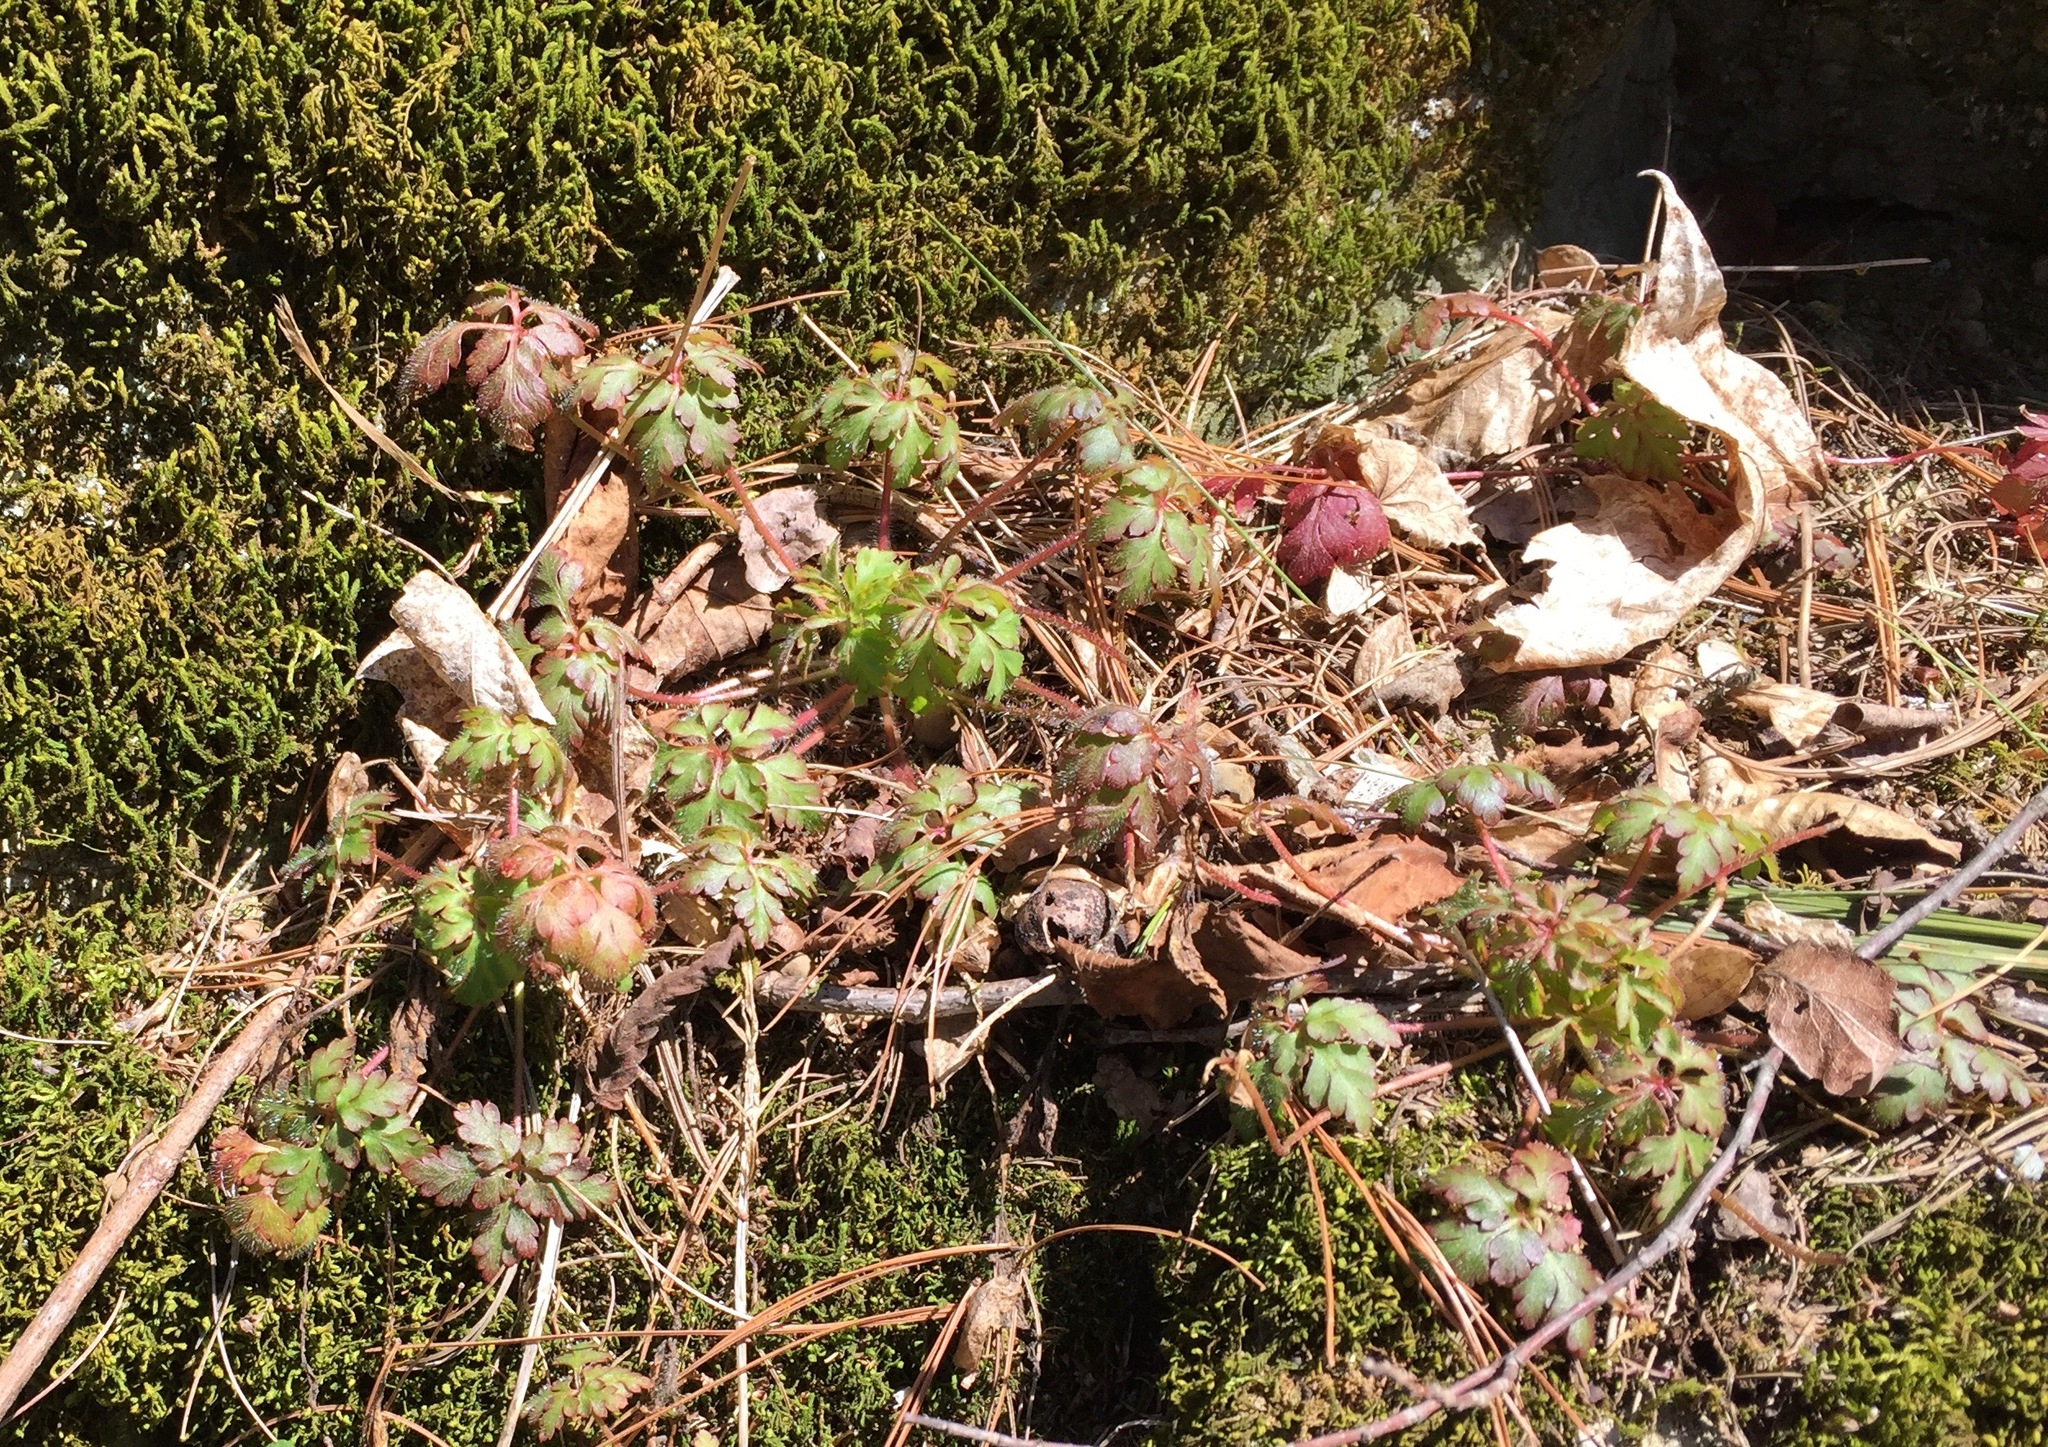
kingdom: Plantae
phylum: Tracheophyta
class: Magnoliopsida
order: Geraniales
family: Geraniaceae
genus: Geranium
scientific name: Geranium robertianum
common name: Herb-robert
